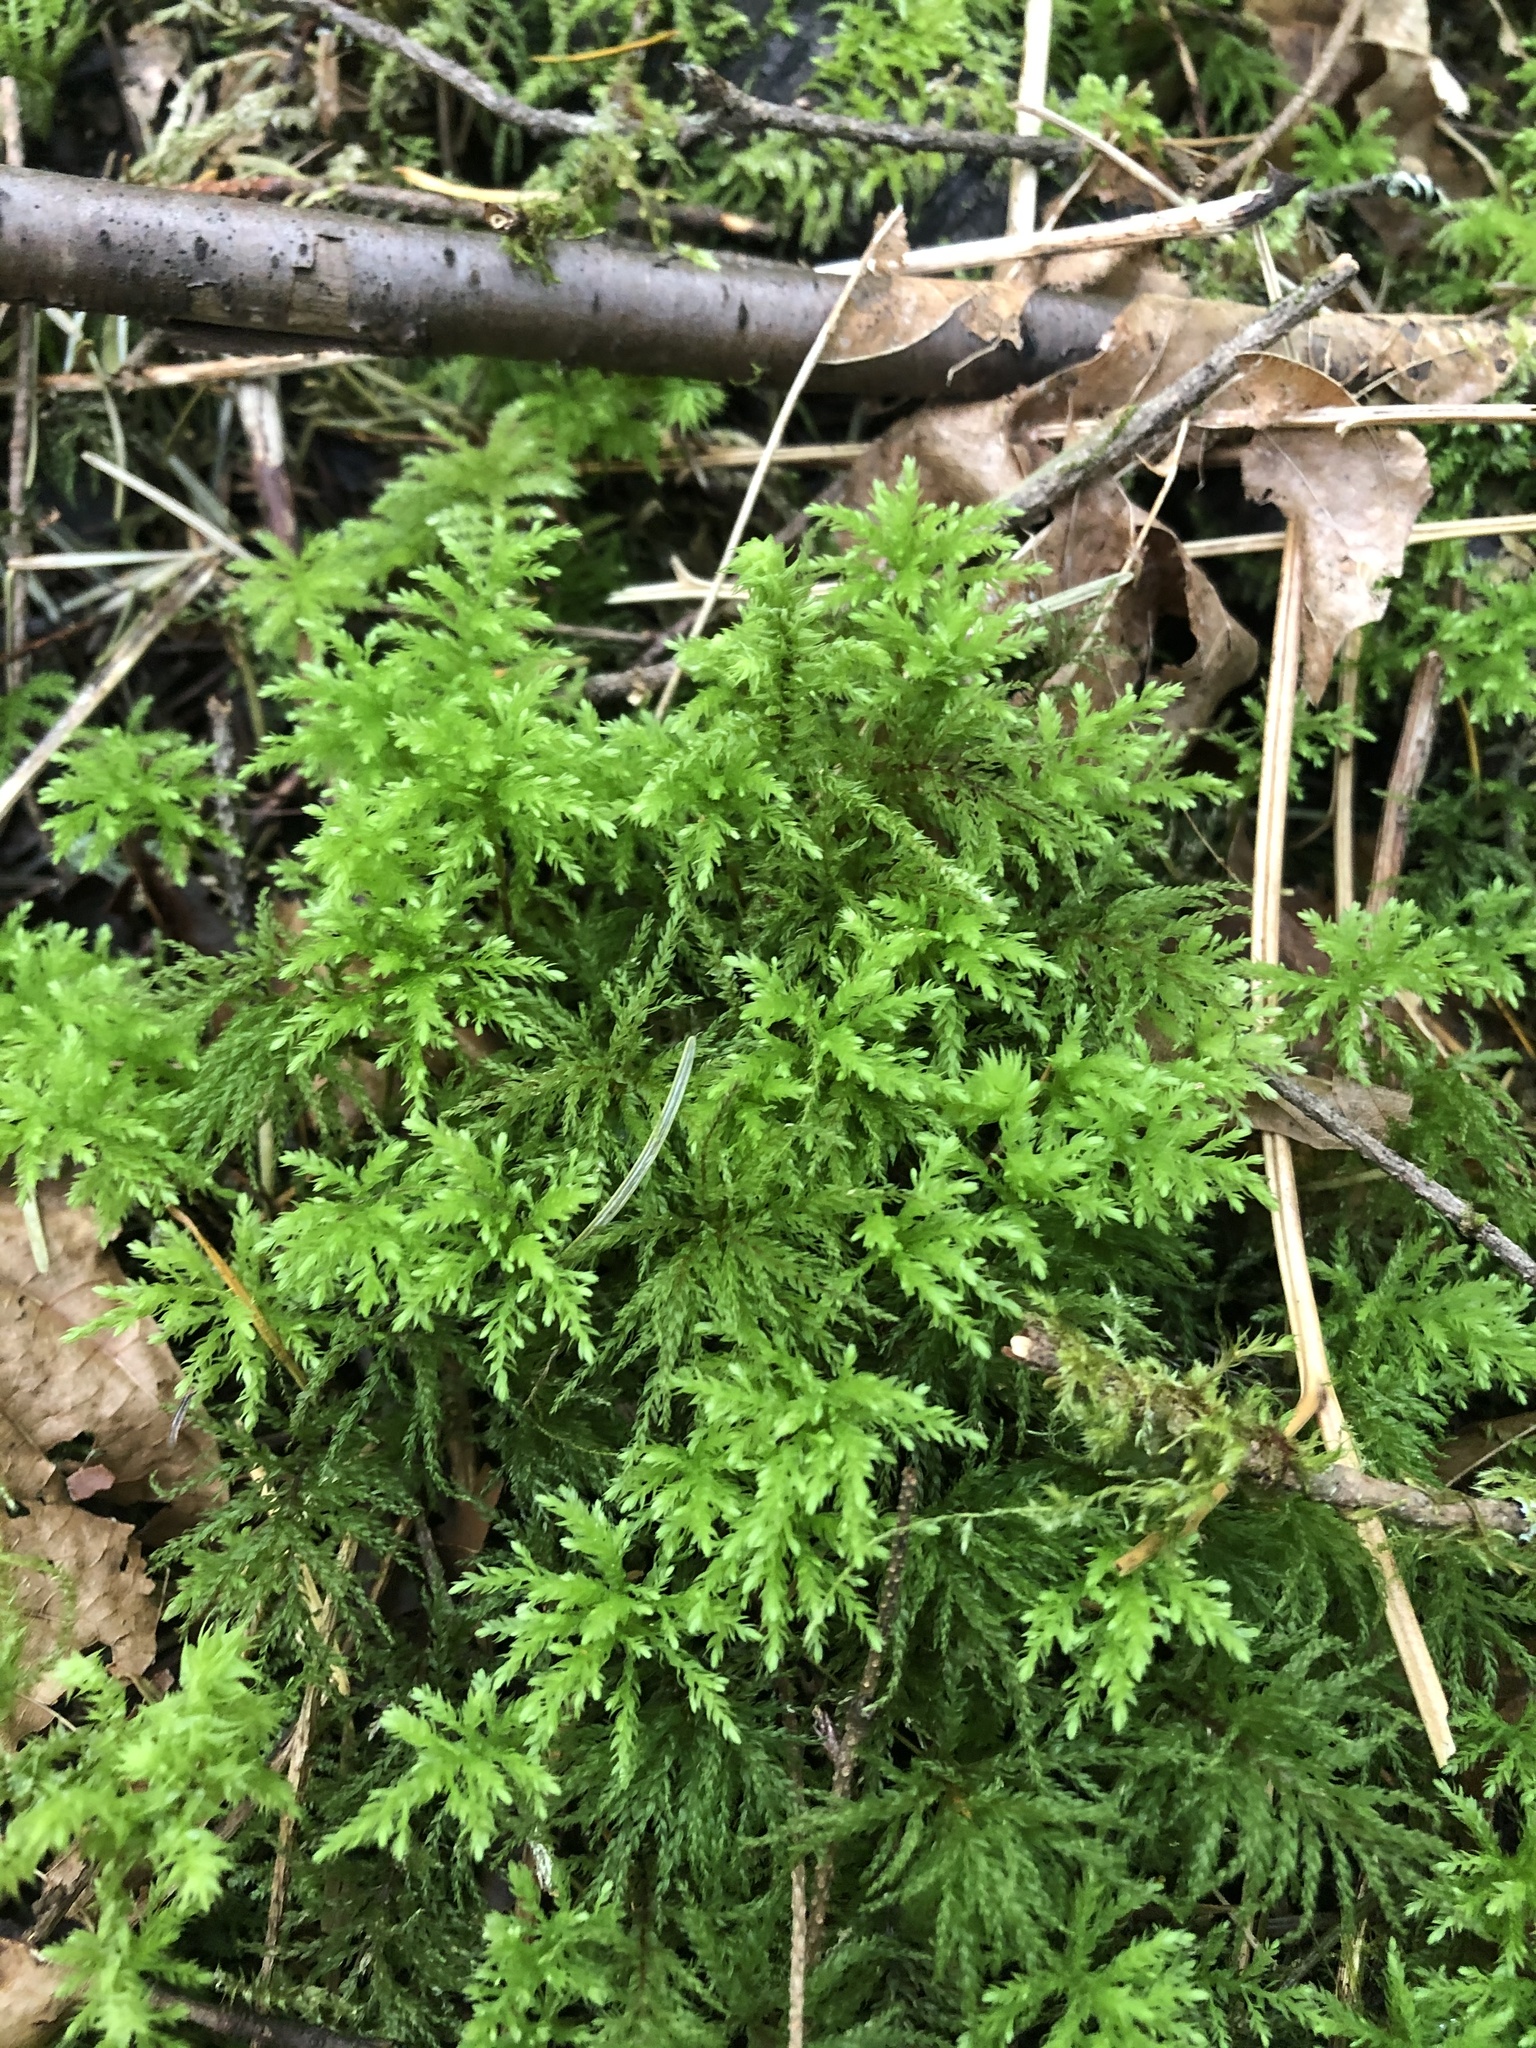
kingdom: Plantae
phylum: Bryophyta
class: Bryopsida
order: Bryales
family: Mniaceae
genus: Leucolepis
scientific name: Leucolepis acanthoneura
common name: Leucolepis umbrella moss
